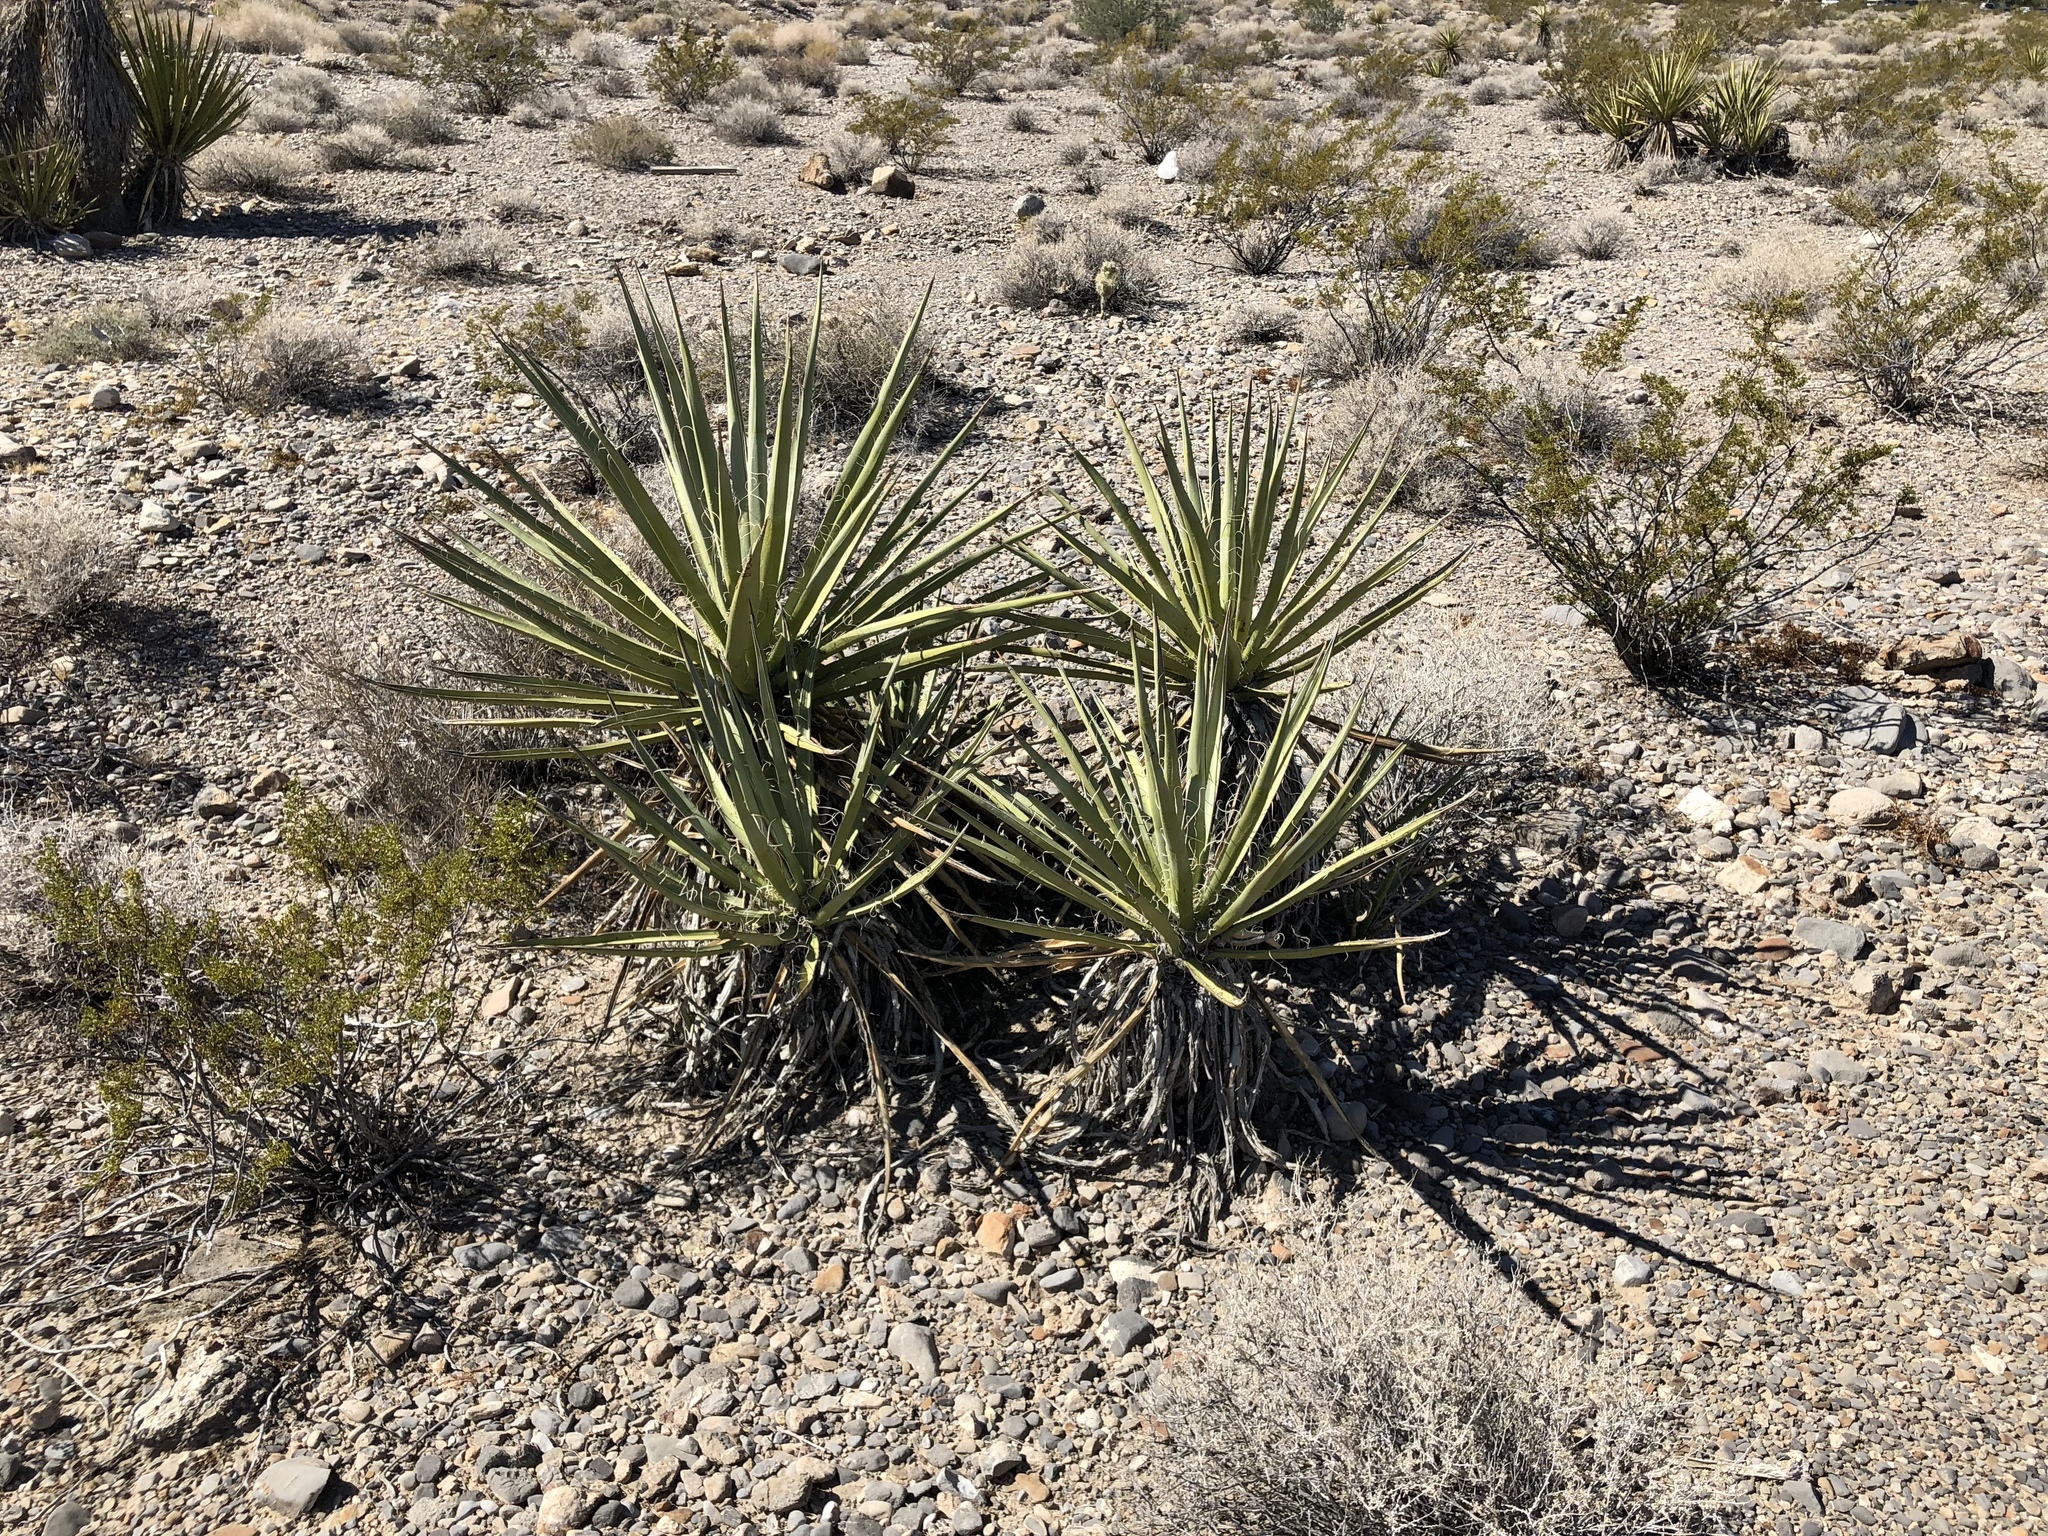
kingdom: Plantae
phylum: Tracheophyta
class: Liliopsida
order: Asparagales
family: Asparagaceae
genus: Yucca
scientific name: Yucca schidigera
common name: Mojave yucca
